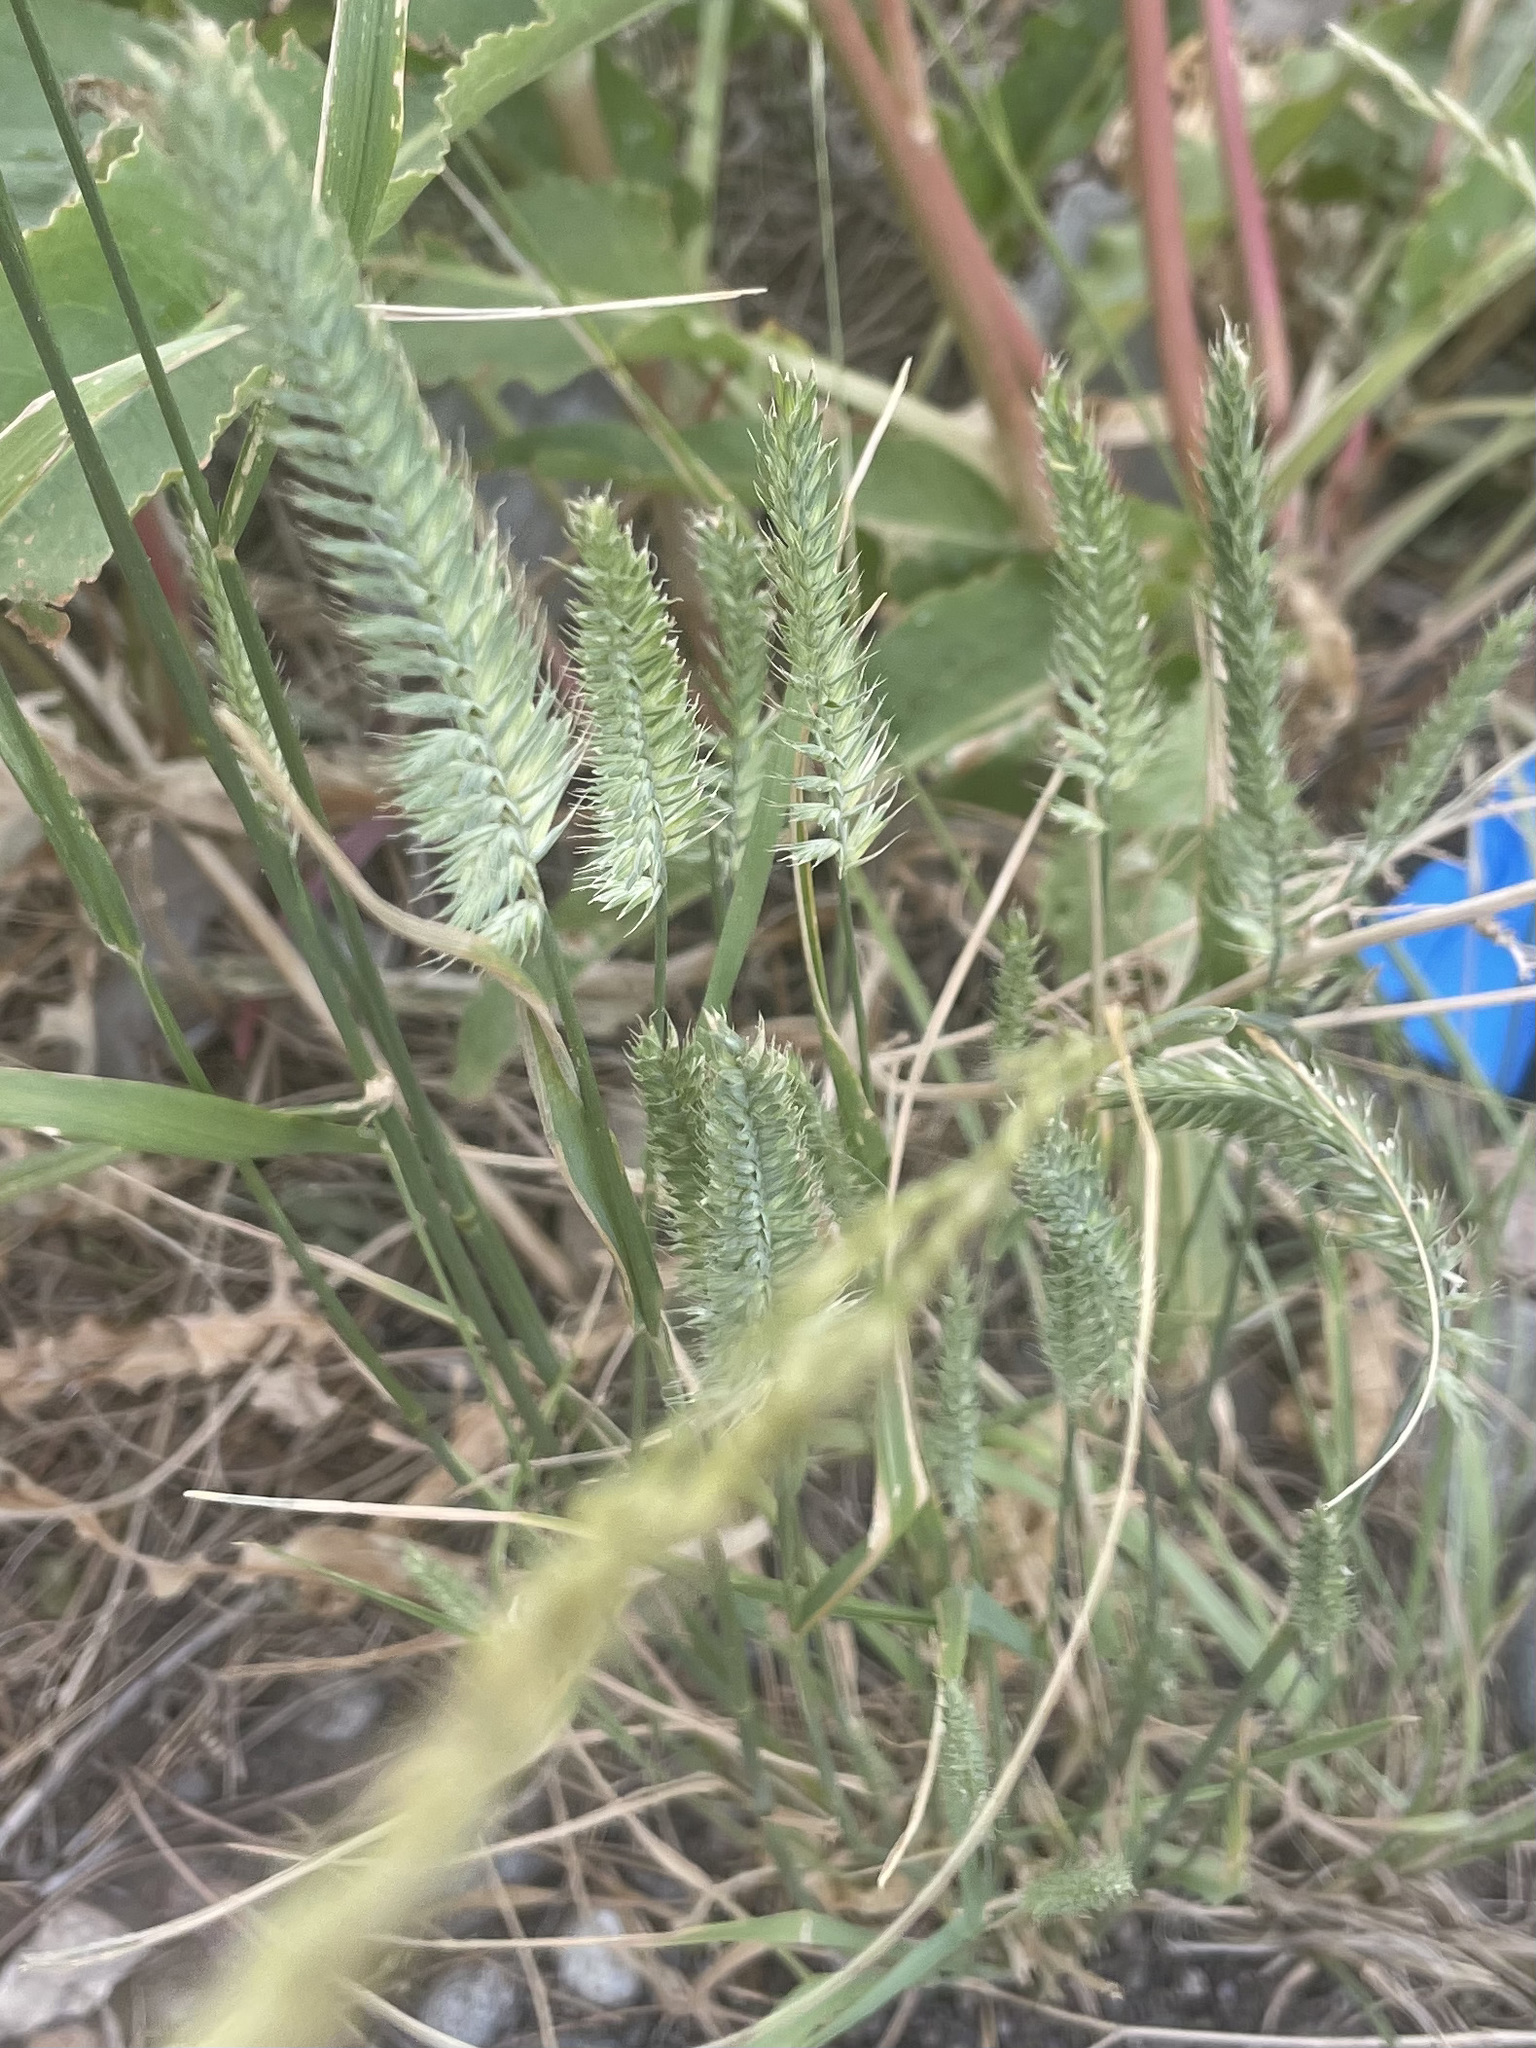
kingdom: Plantae
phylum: Tracheophyta
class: Liliopsida
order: Poales
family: Poaceae
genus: Agropyron
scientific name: Agropyron cristatum
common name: Crested wheatgrass
